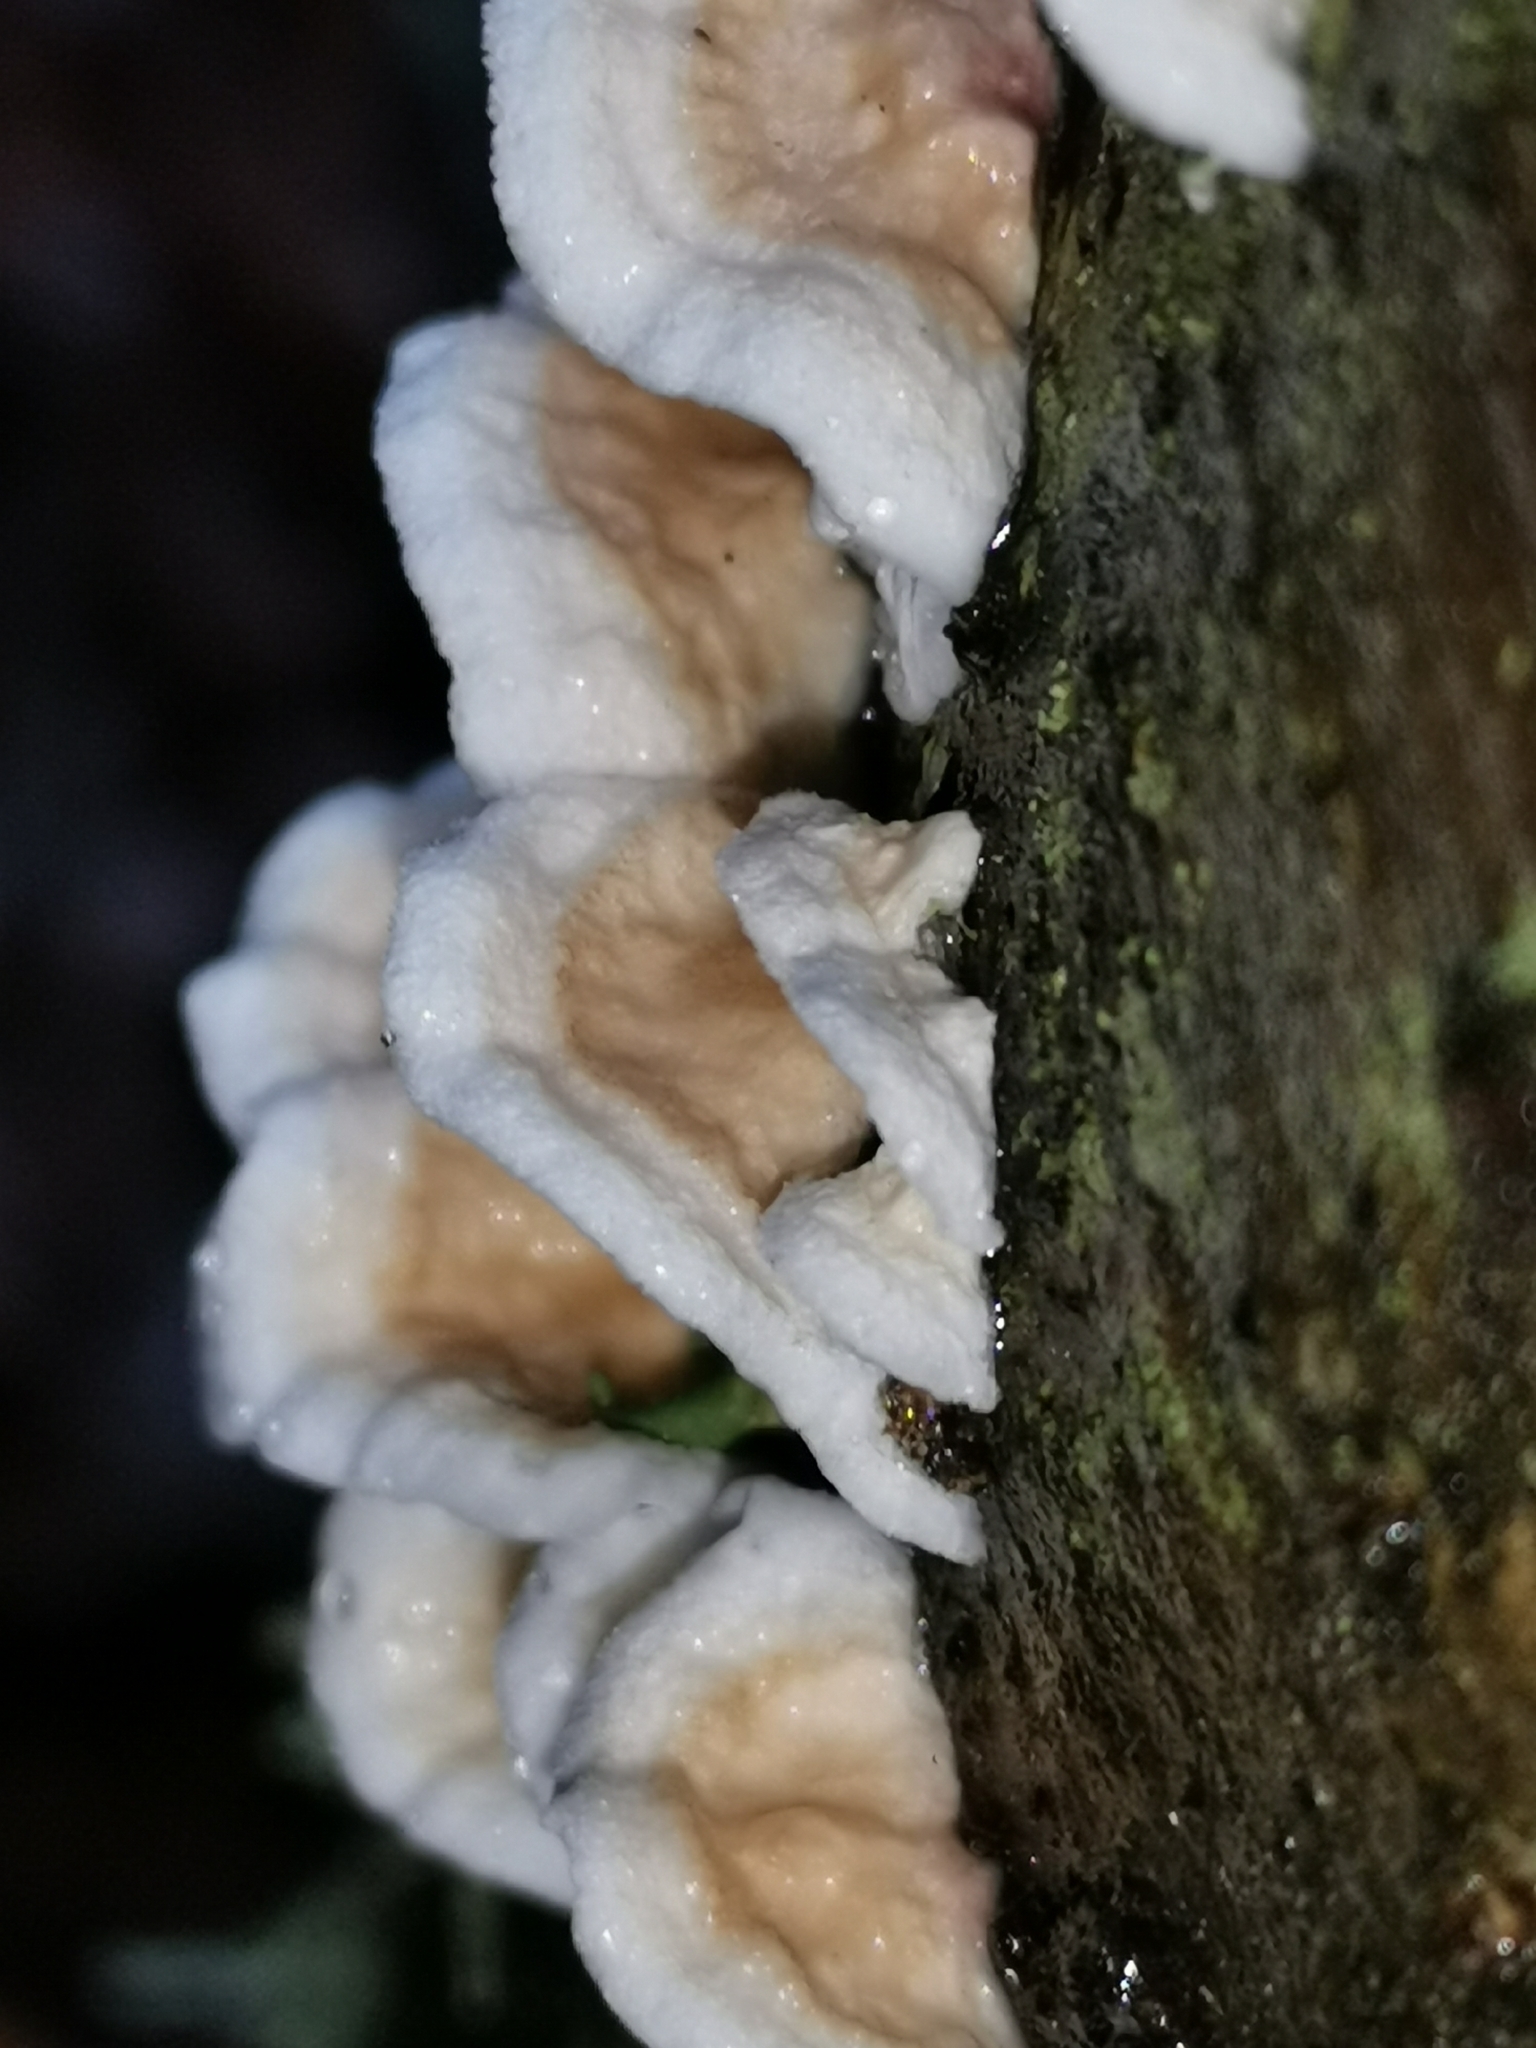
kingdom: Fungi
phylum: Basidiomycota
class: Agaricomycetes
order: Agaricales
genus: Plicatura
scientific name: Plicatura nivea
